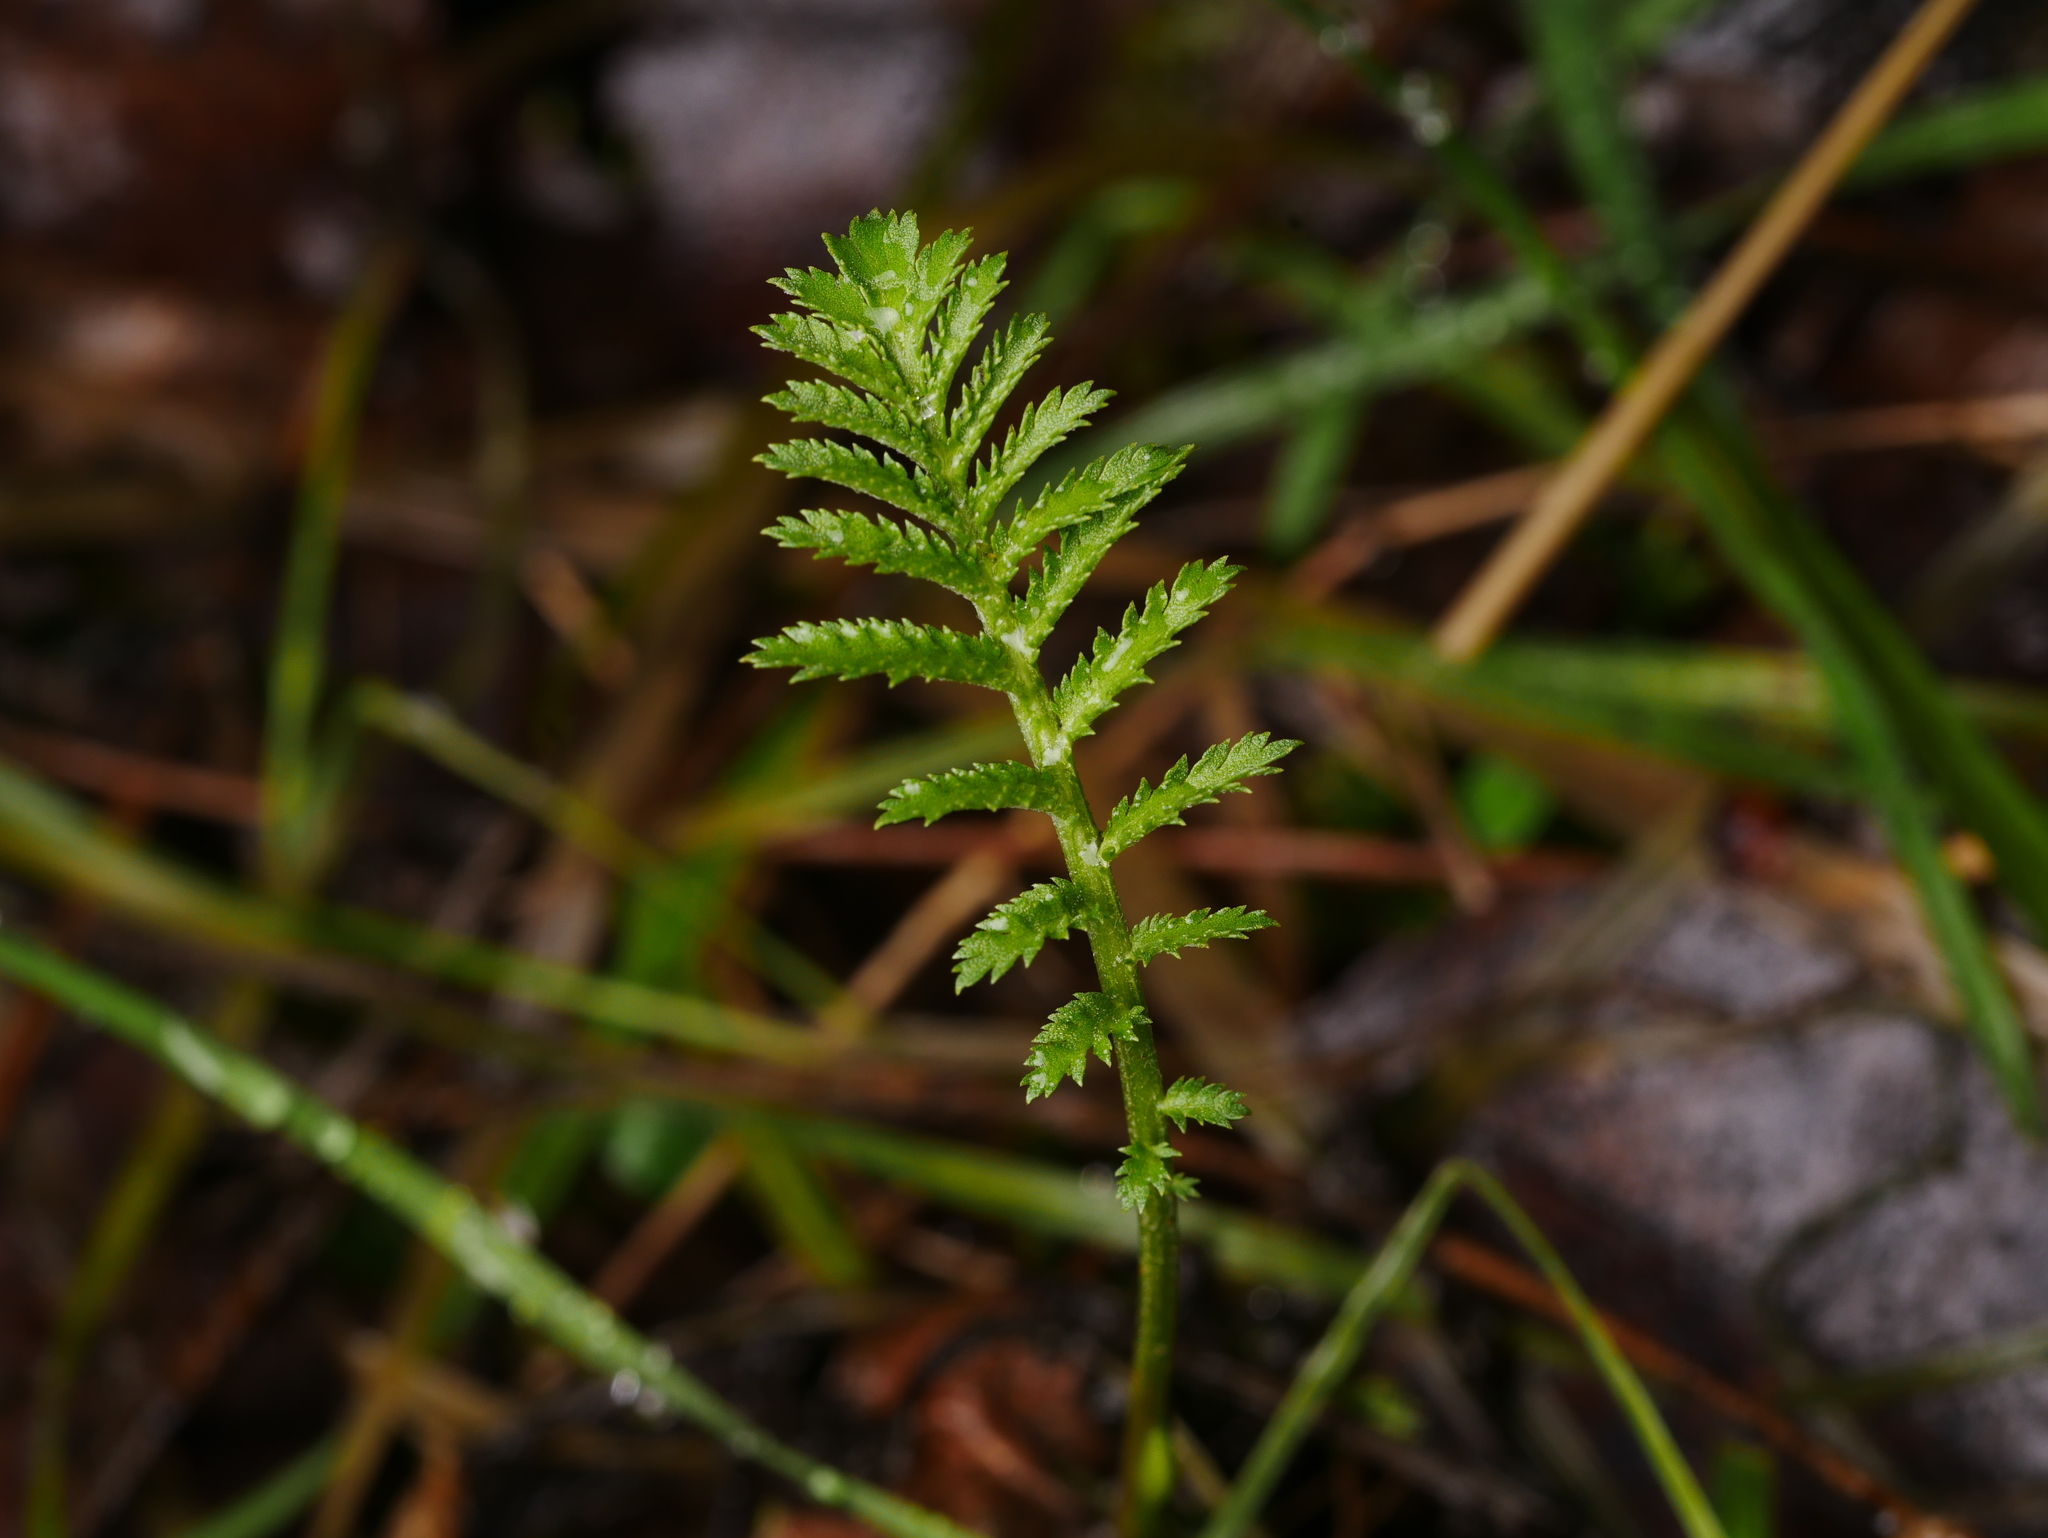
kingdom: Plantae
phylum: Tracheophyta
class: Magnoliopsida
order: Asterales
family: Asteraceae
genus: Tanacetum
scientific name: Tanacetum vulgare
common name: Common tansy
